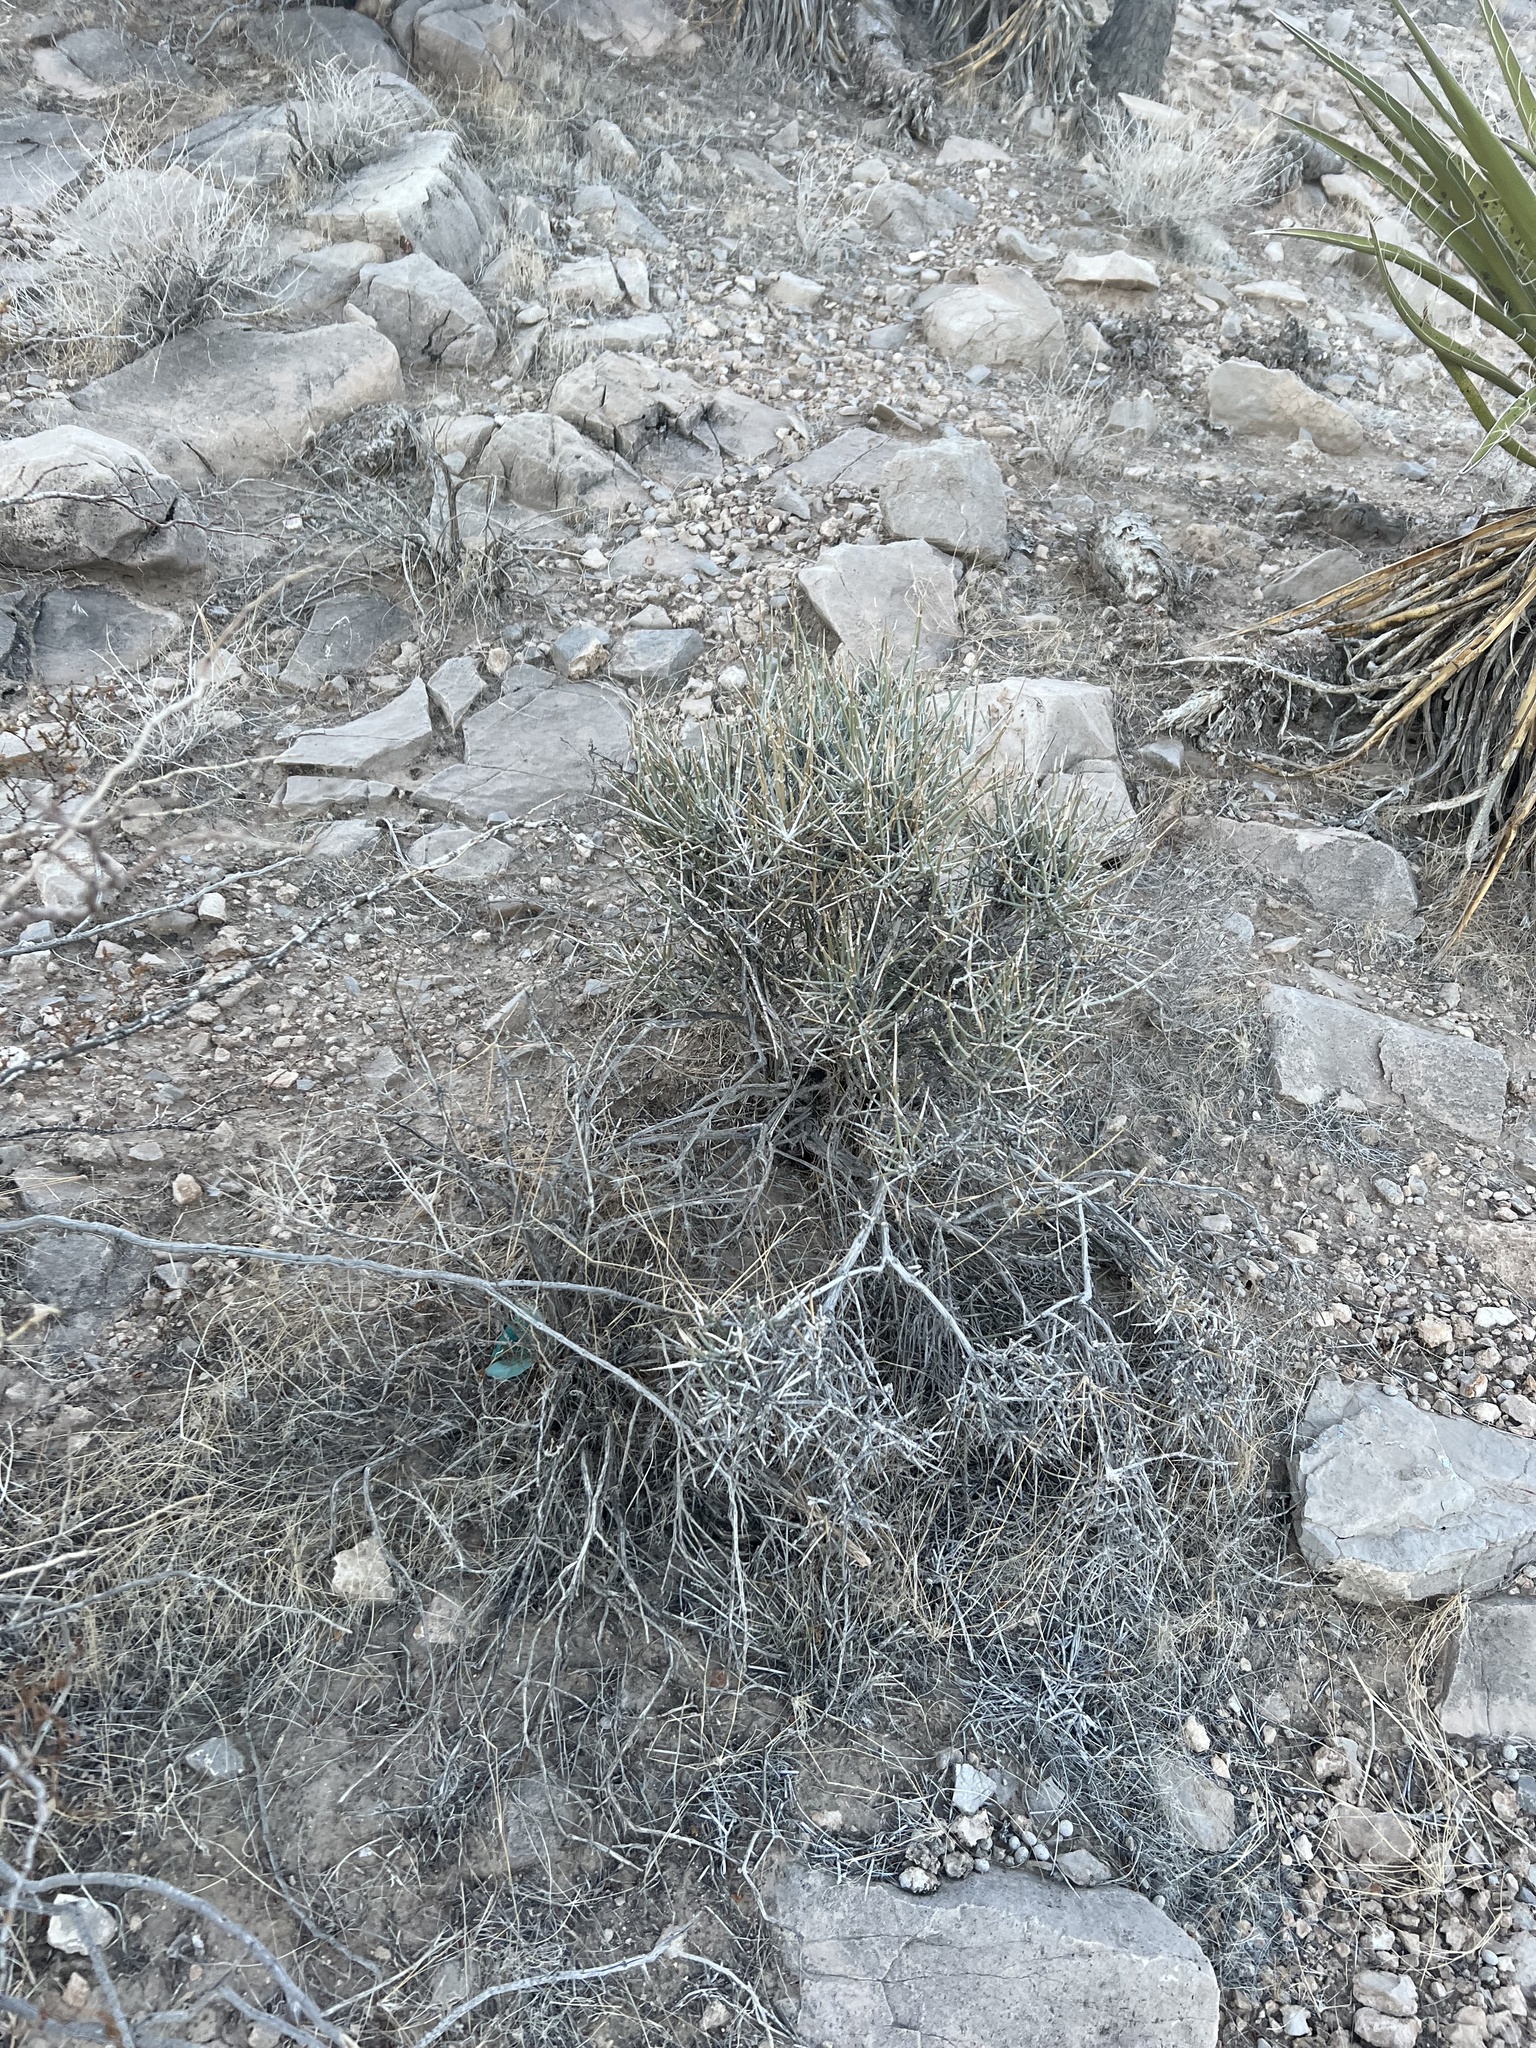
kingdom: Plantae
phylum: Tracheophyta
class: Gnetopsida
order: Ephedrales
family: Ephedraceae
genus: Ephedra
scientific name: Ephedra nevadensis
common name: Gray ephedra
